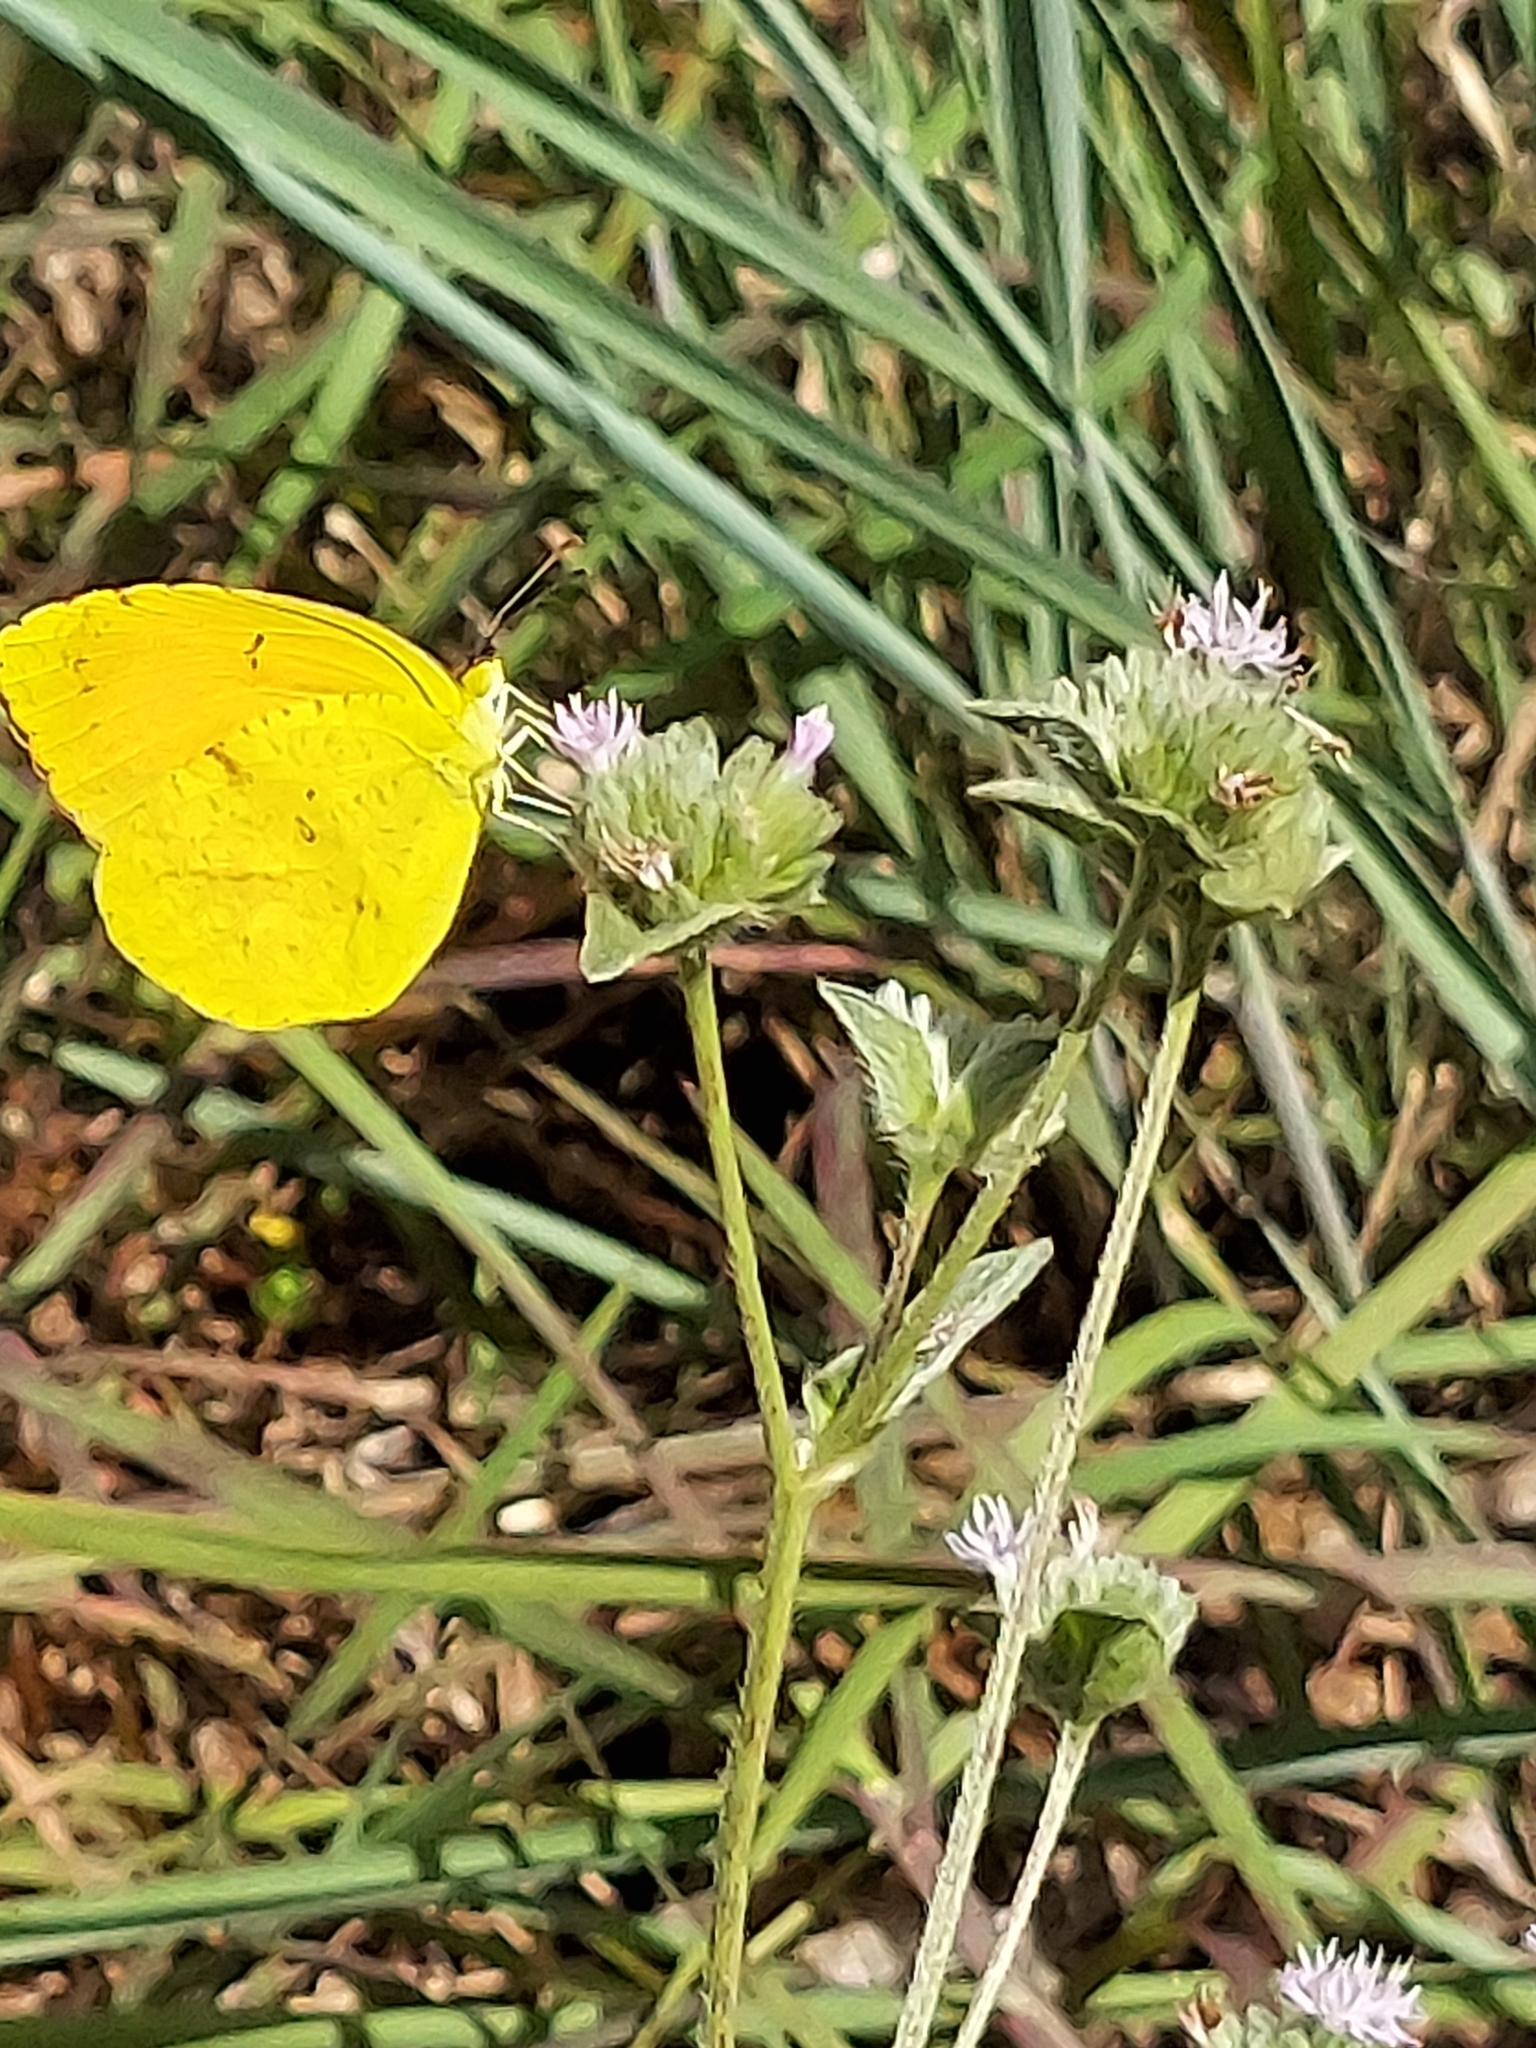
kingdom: Plantae
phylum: Tracheophyta
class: Magnoliopsida
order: Asterales
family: Asteraceae
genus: Elephantopus
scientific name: Elephantopus elatus
